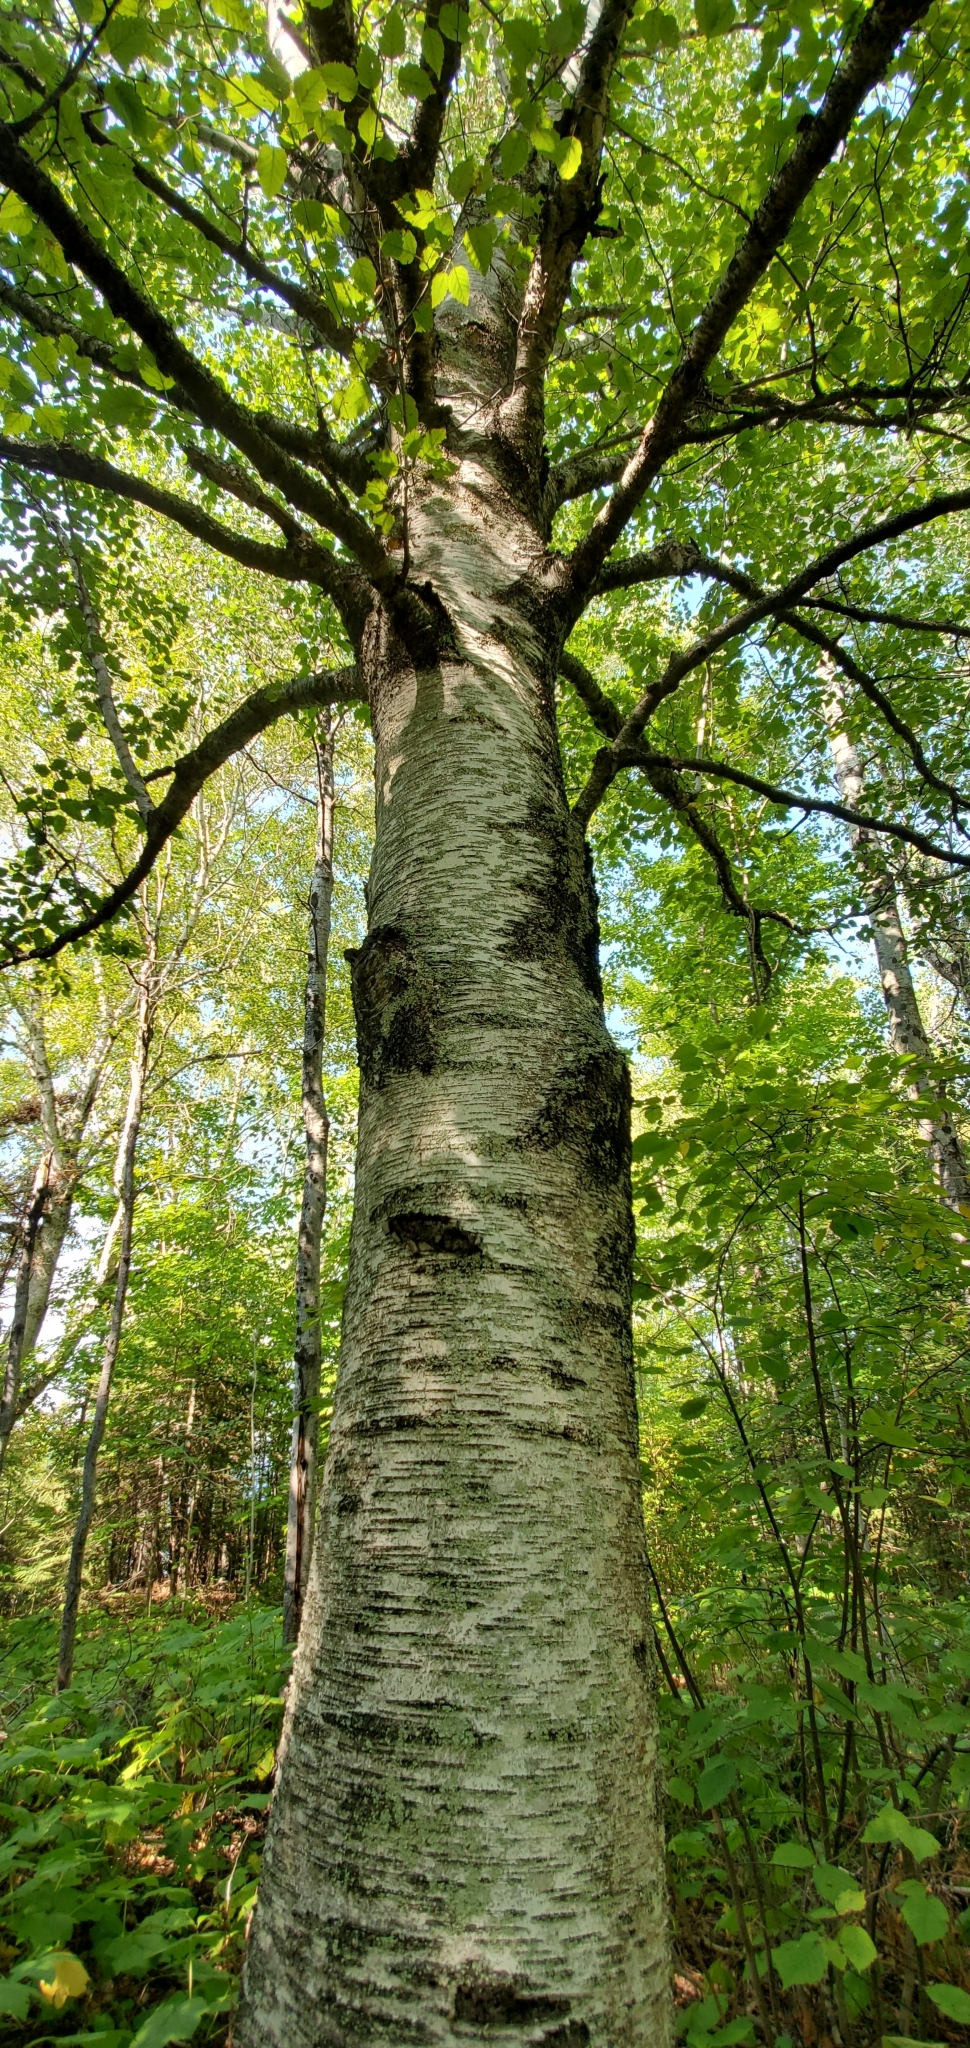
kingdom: Plantae
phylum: Tracheophyta
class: Magnoliopsida
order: Fagales
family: Betulaceae
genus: Betula
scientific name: Betula papyrifera
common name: Paper birch
